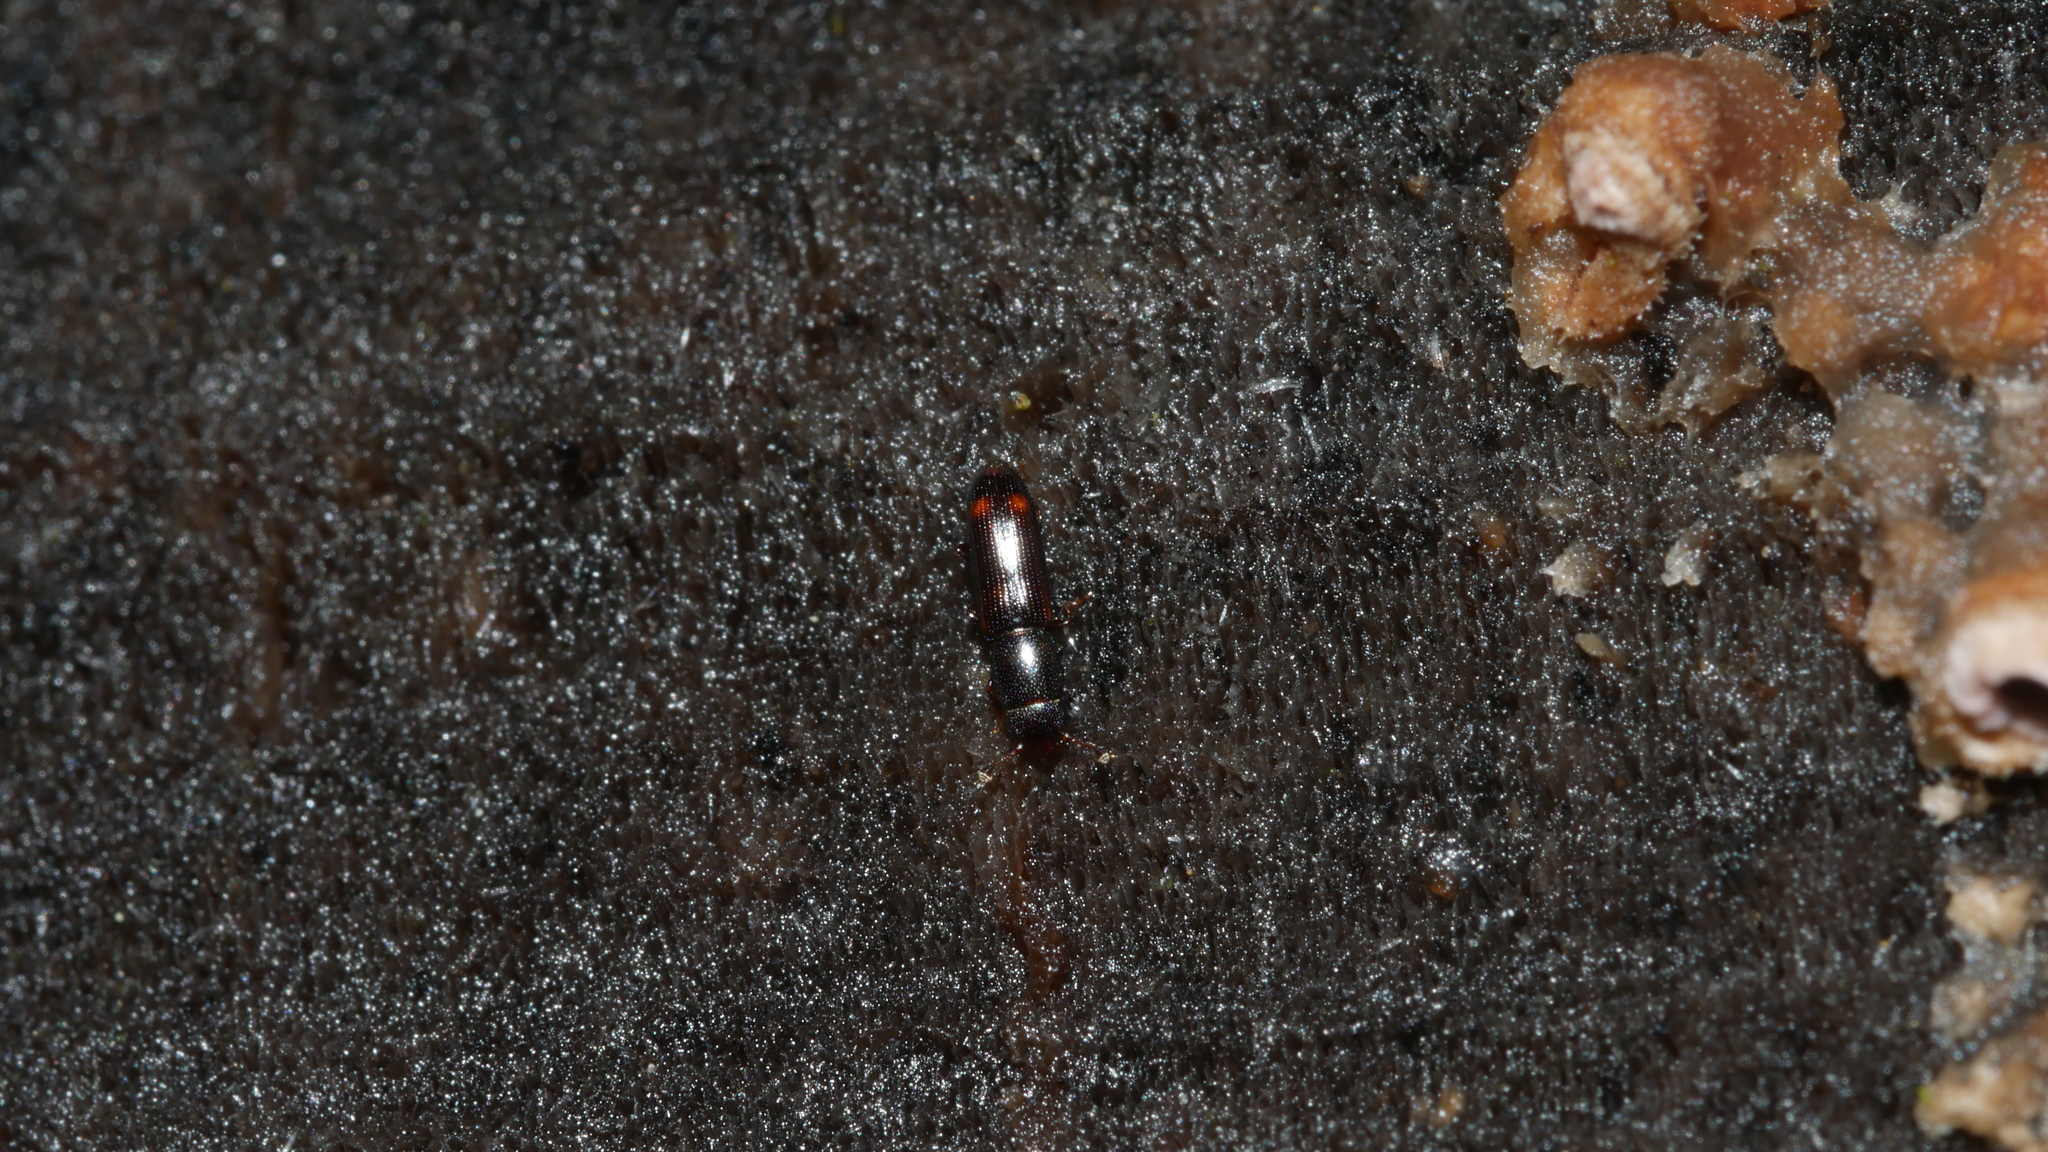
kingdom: Animalia
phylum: Arthropoda
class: Insecta
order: Coleoptera
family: Monotomidae
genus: Rhizophagus
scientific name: Rhizophagus sayi
